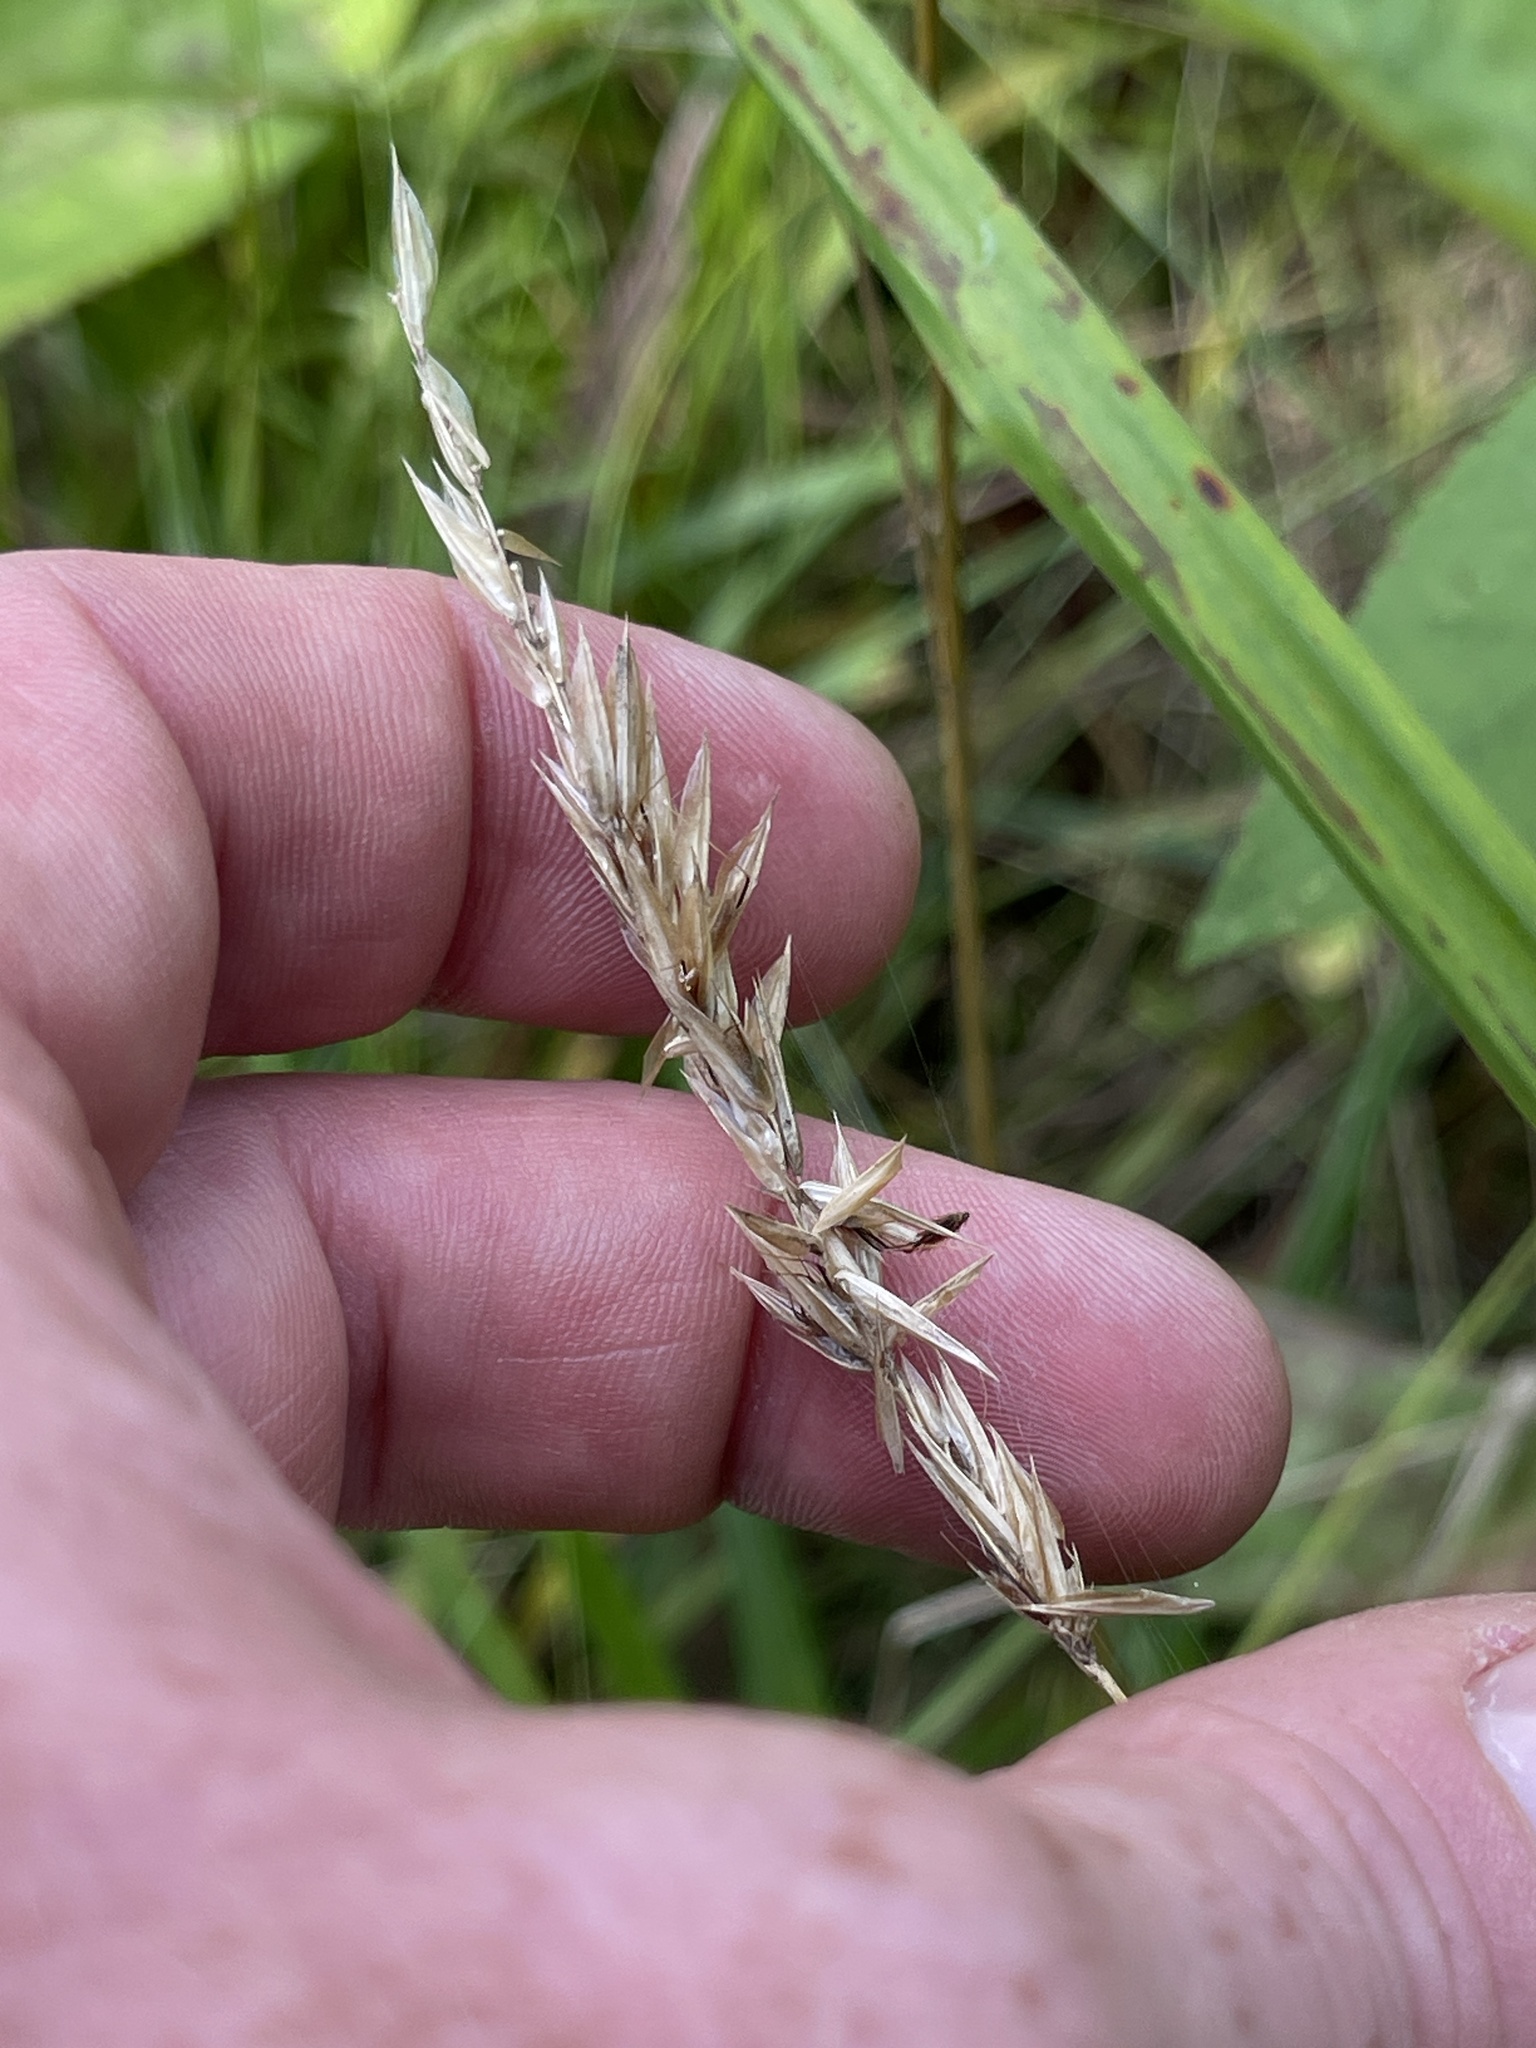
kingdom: Plantae
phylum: Tracheophyta
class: Liliopsida
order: Poales
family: Poaceae
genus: Anthoxanthum
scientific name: Anthoxanthum odoratum
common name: Sweet vernalgrass
